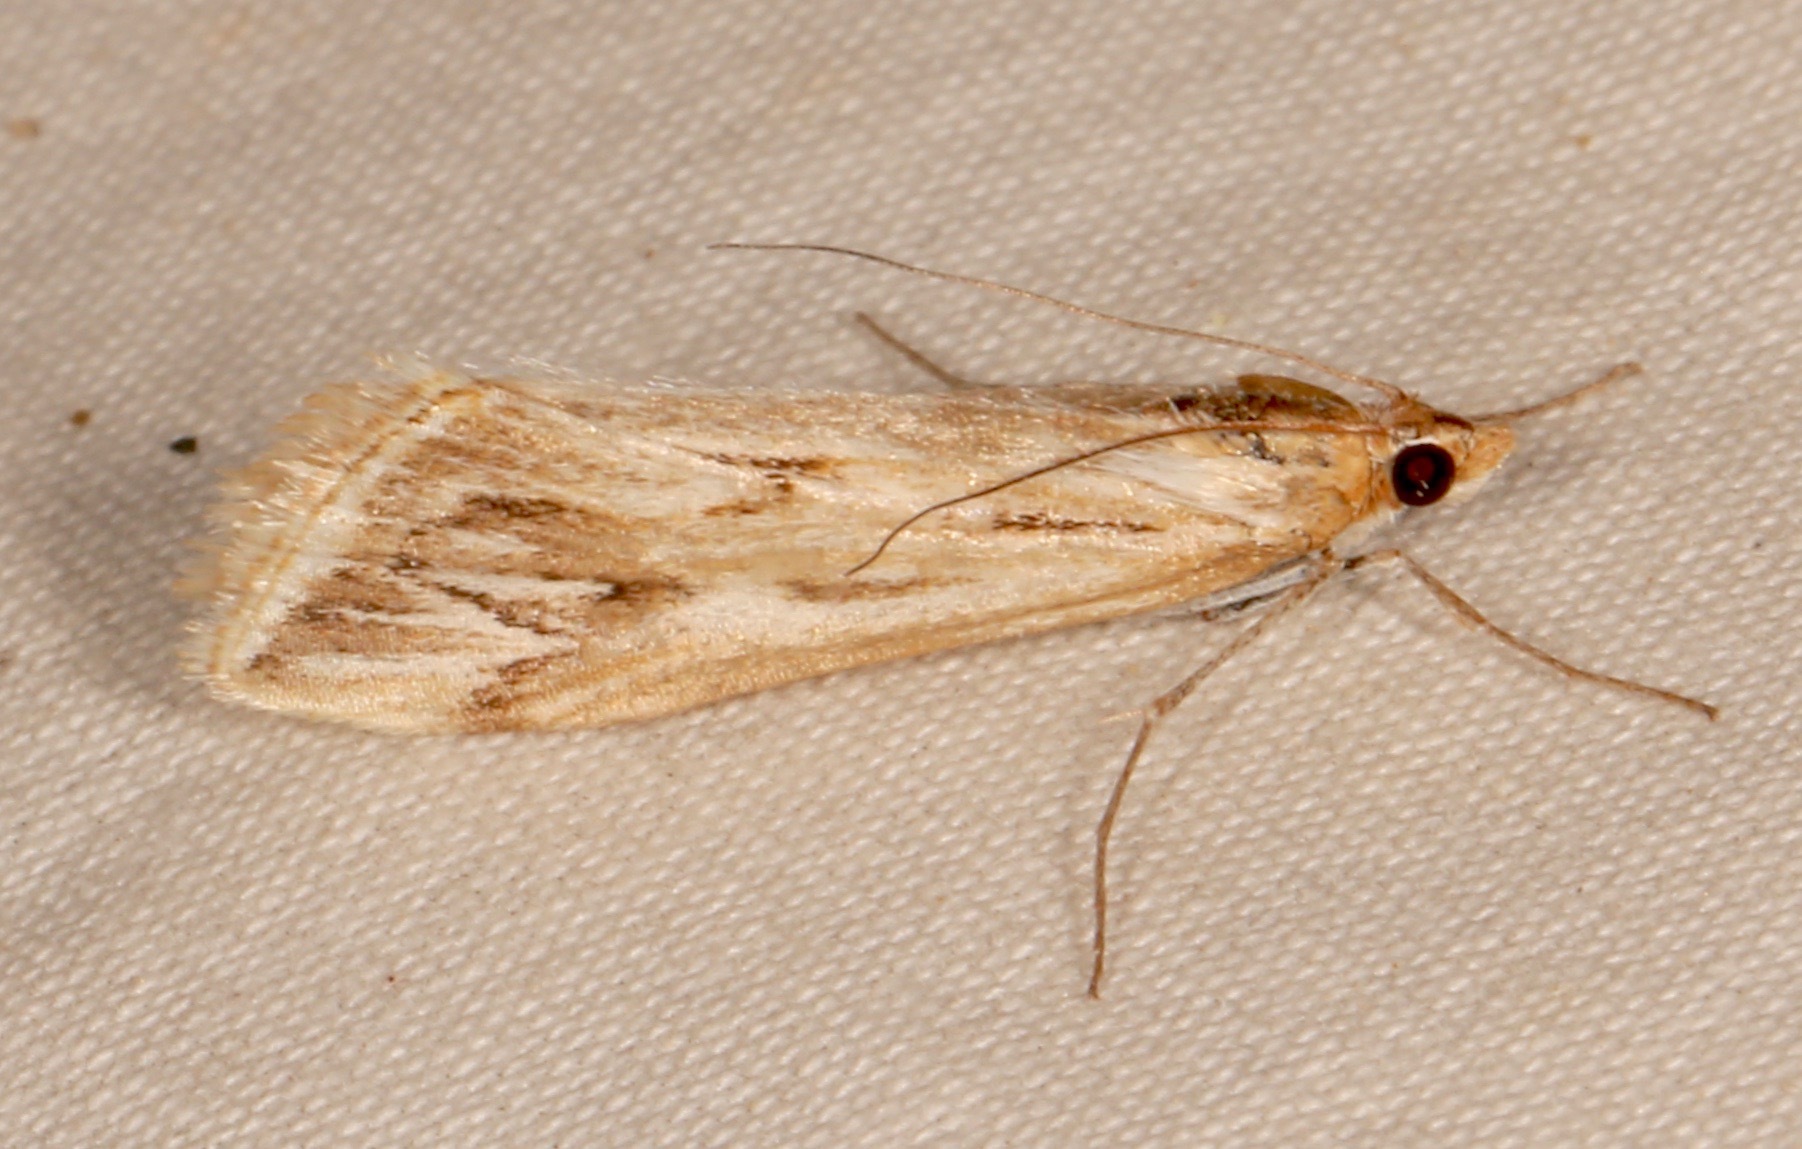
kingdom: Animalia
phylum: Arthropoda
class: Insecta
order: Lepidoptera
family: Crambidae
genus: Loxostege
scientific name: Loxostege oberthuralis
